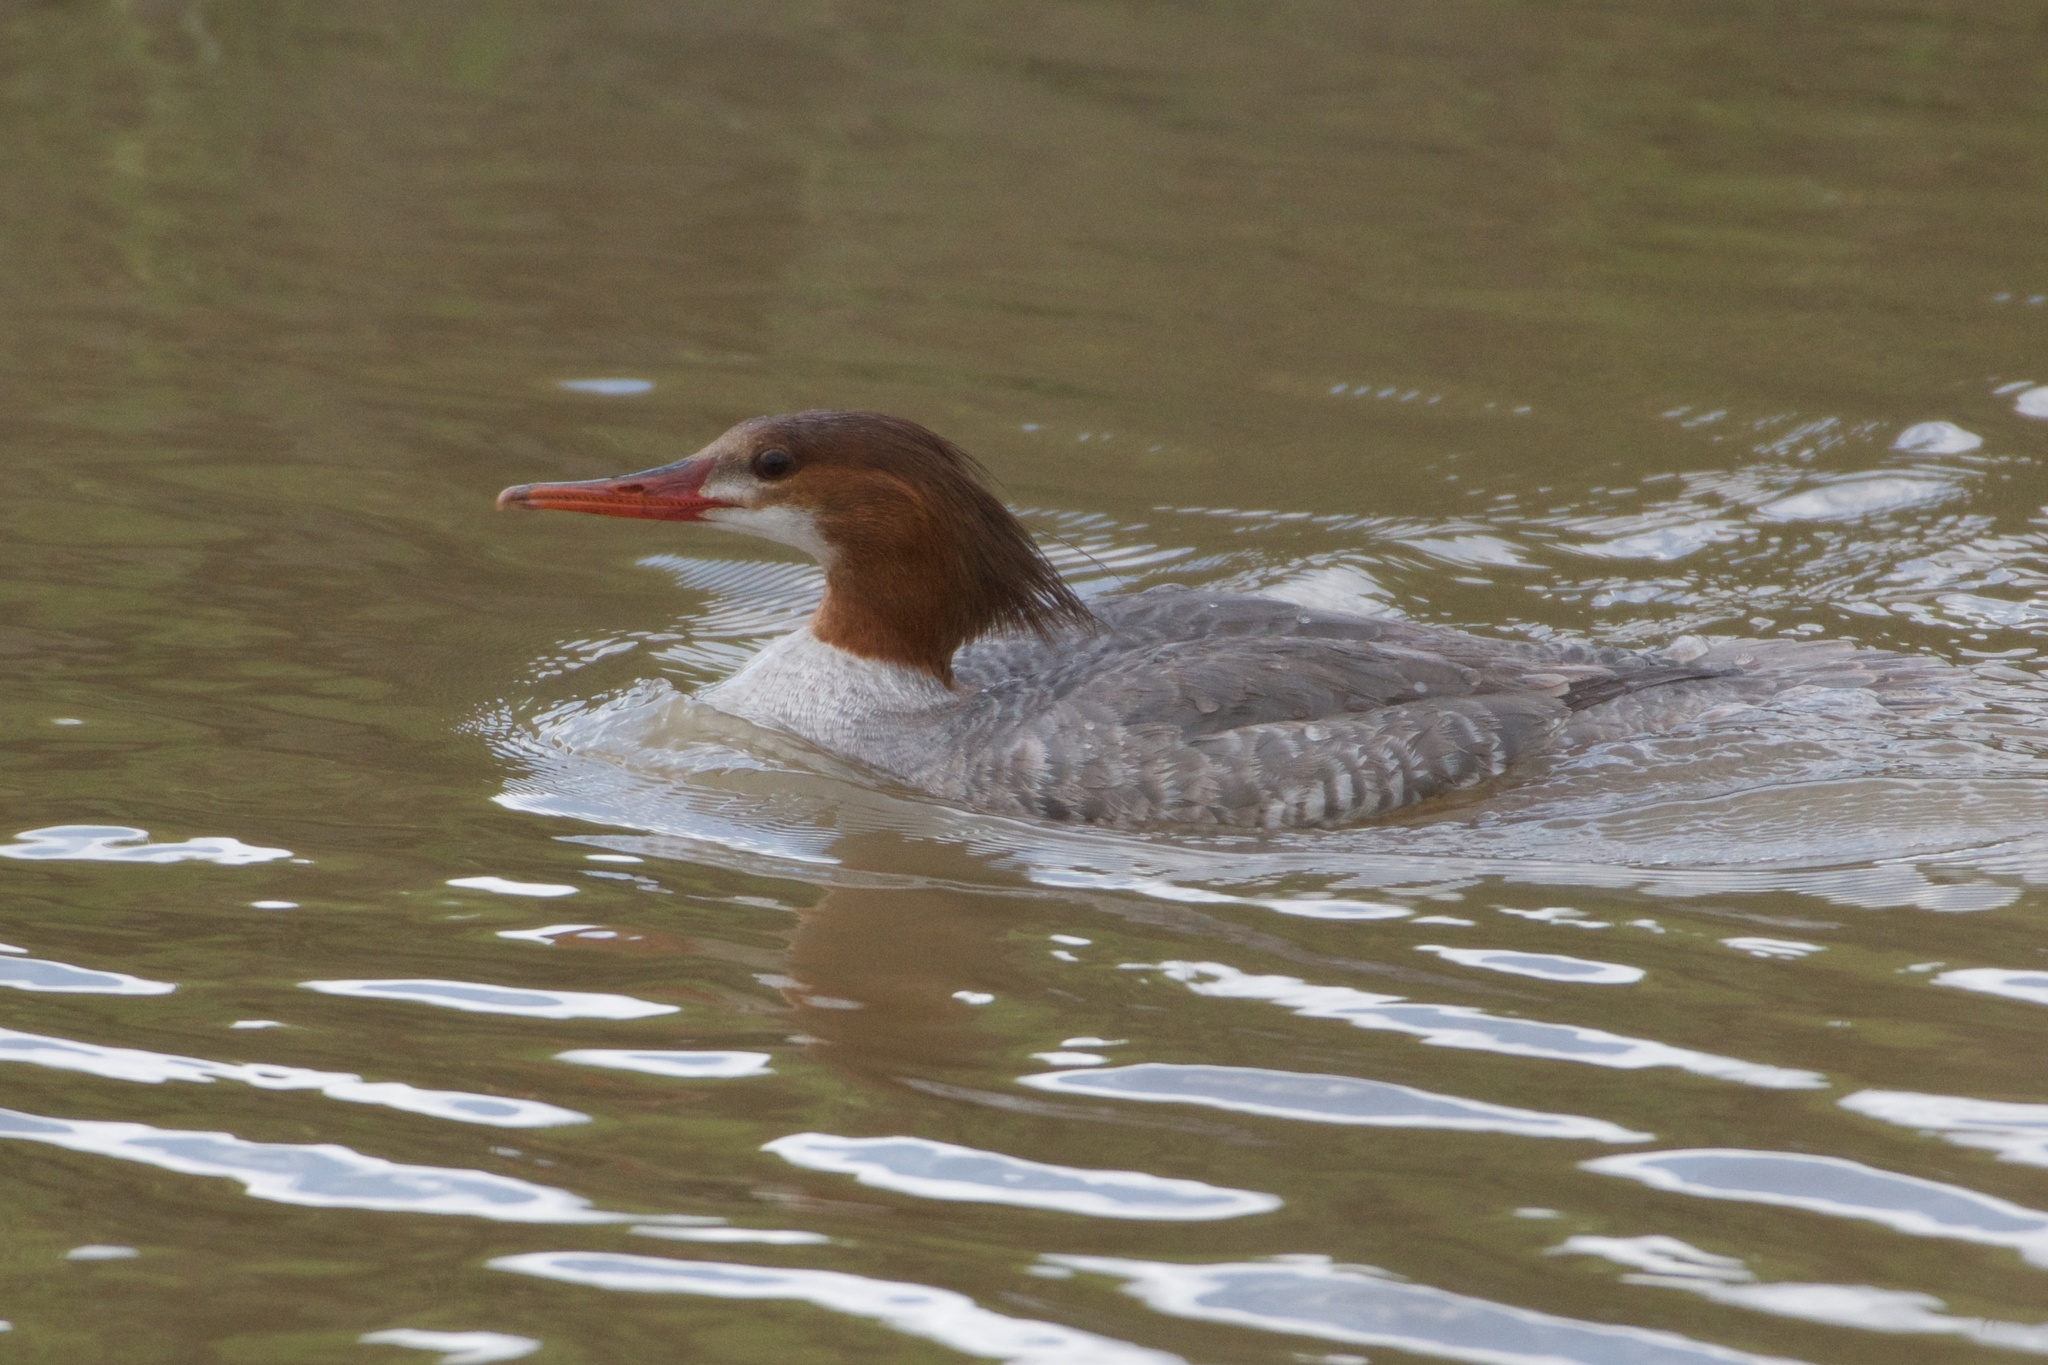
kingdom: Animalia
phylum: Chordata
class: Aves
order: Anseriformes
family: Anatidae
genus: Mergus
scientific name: Mergus merganser
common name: Common merganser
